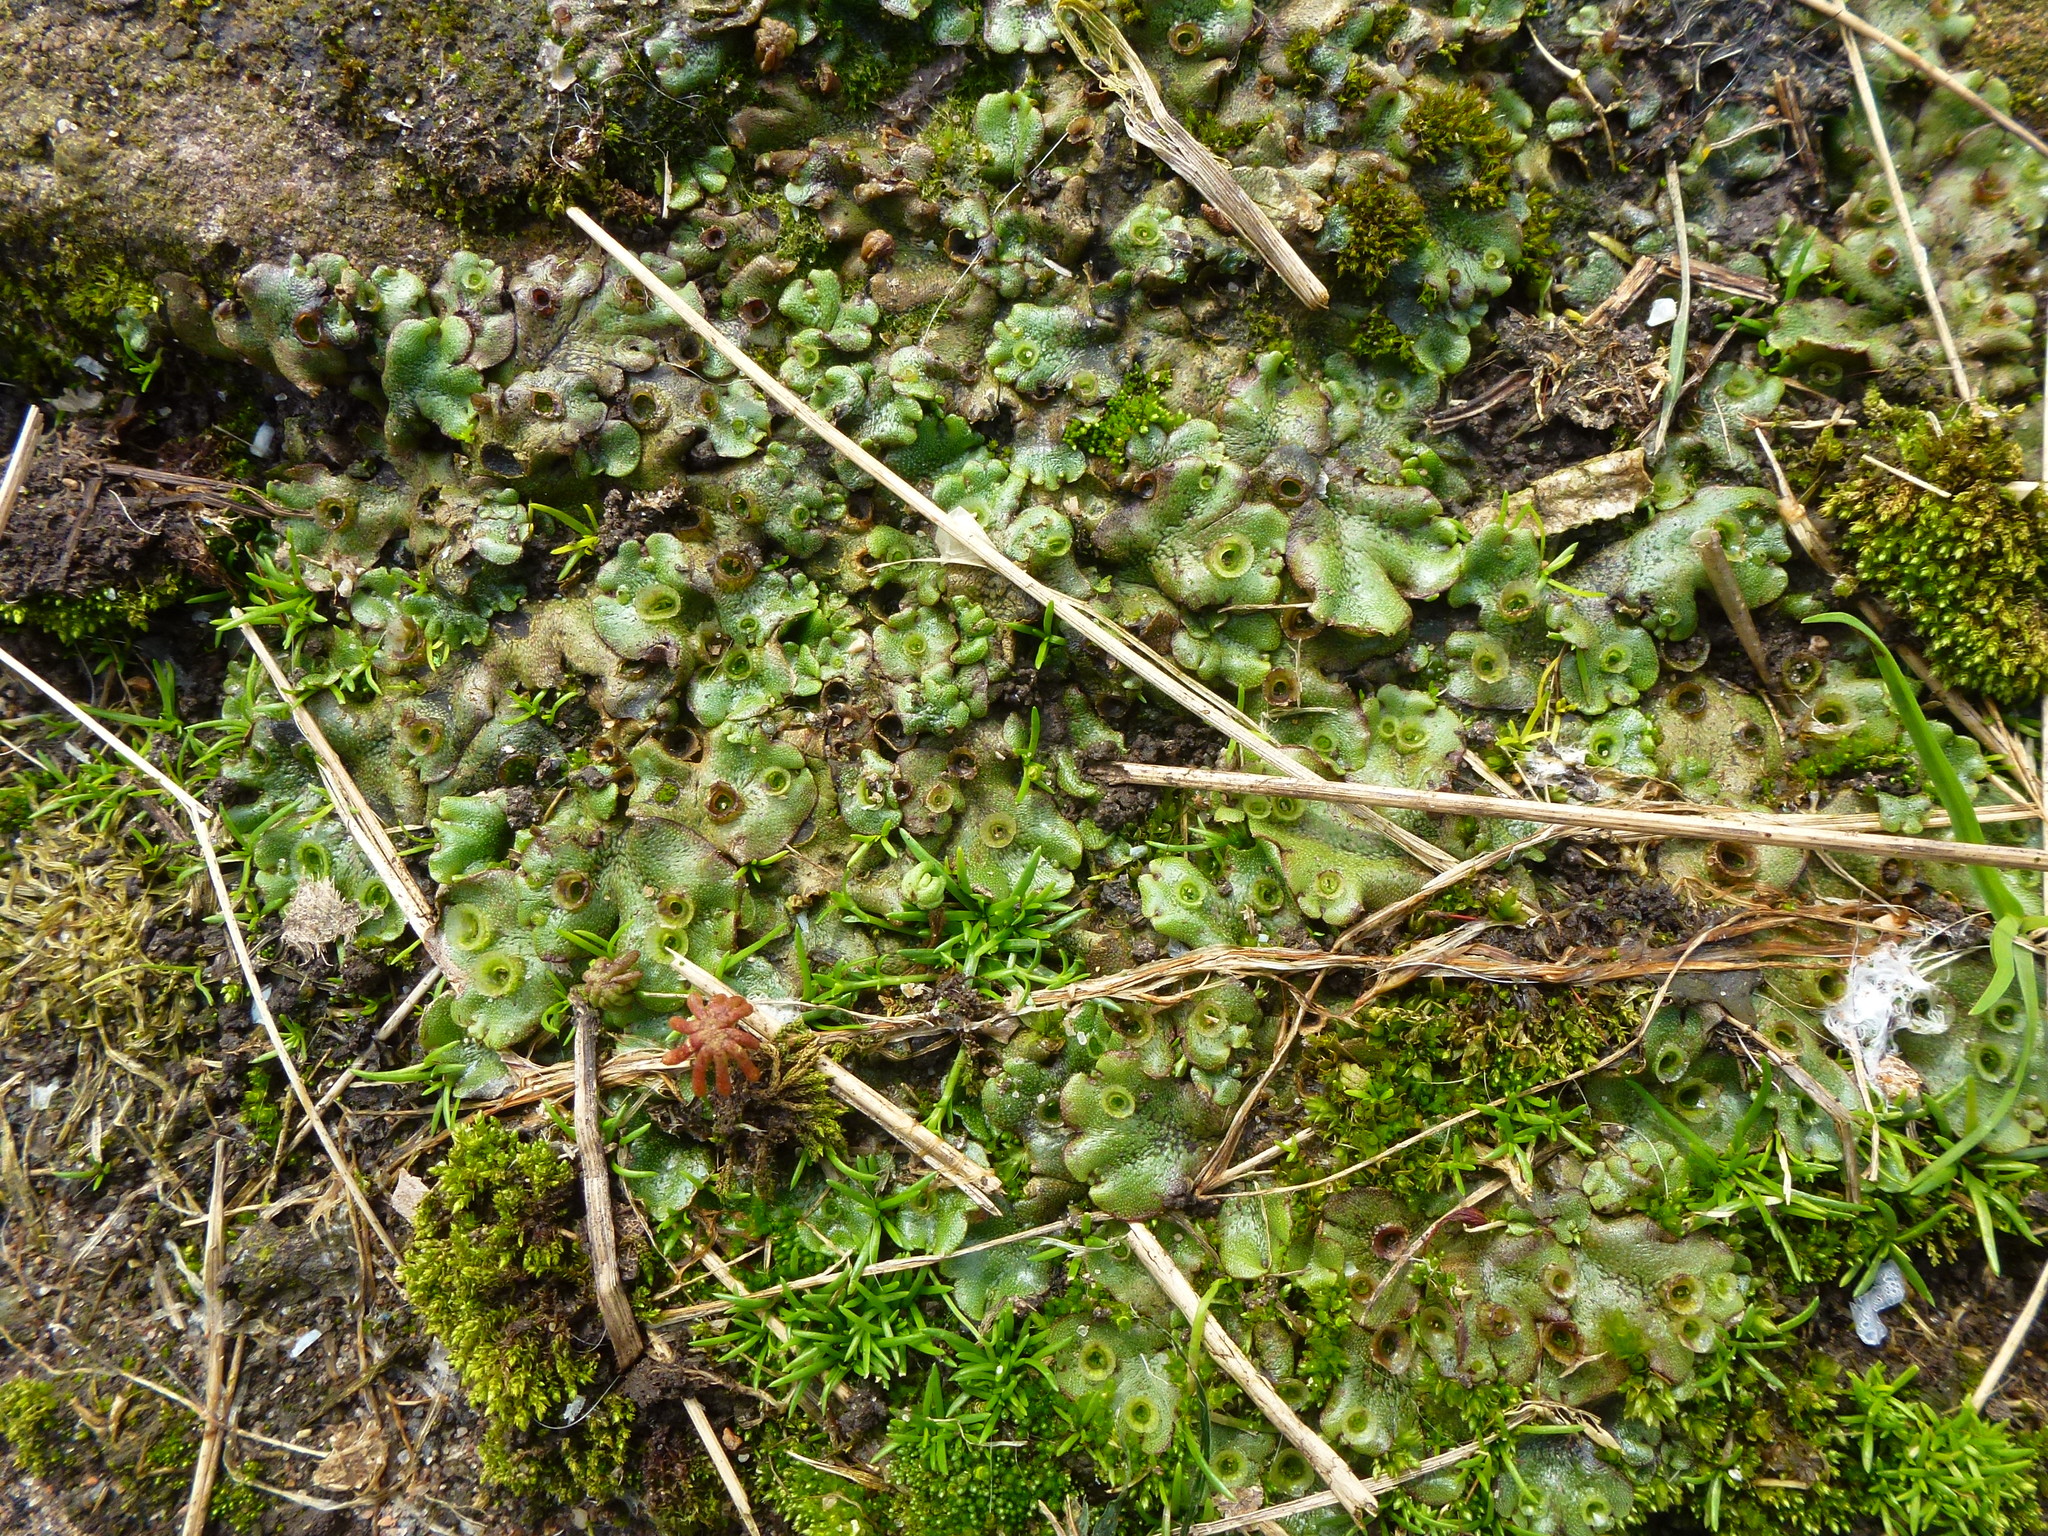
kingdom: Plantae
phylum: Marchantiophyta
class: Marchantiopsida
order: Marchantiales
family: Marchantiaceae
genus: Marchantia
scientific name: Marchantia polymorpha
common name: Common liverwort
